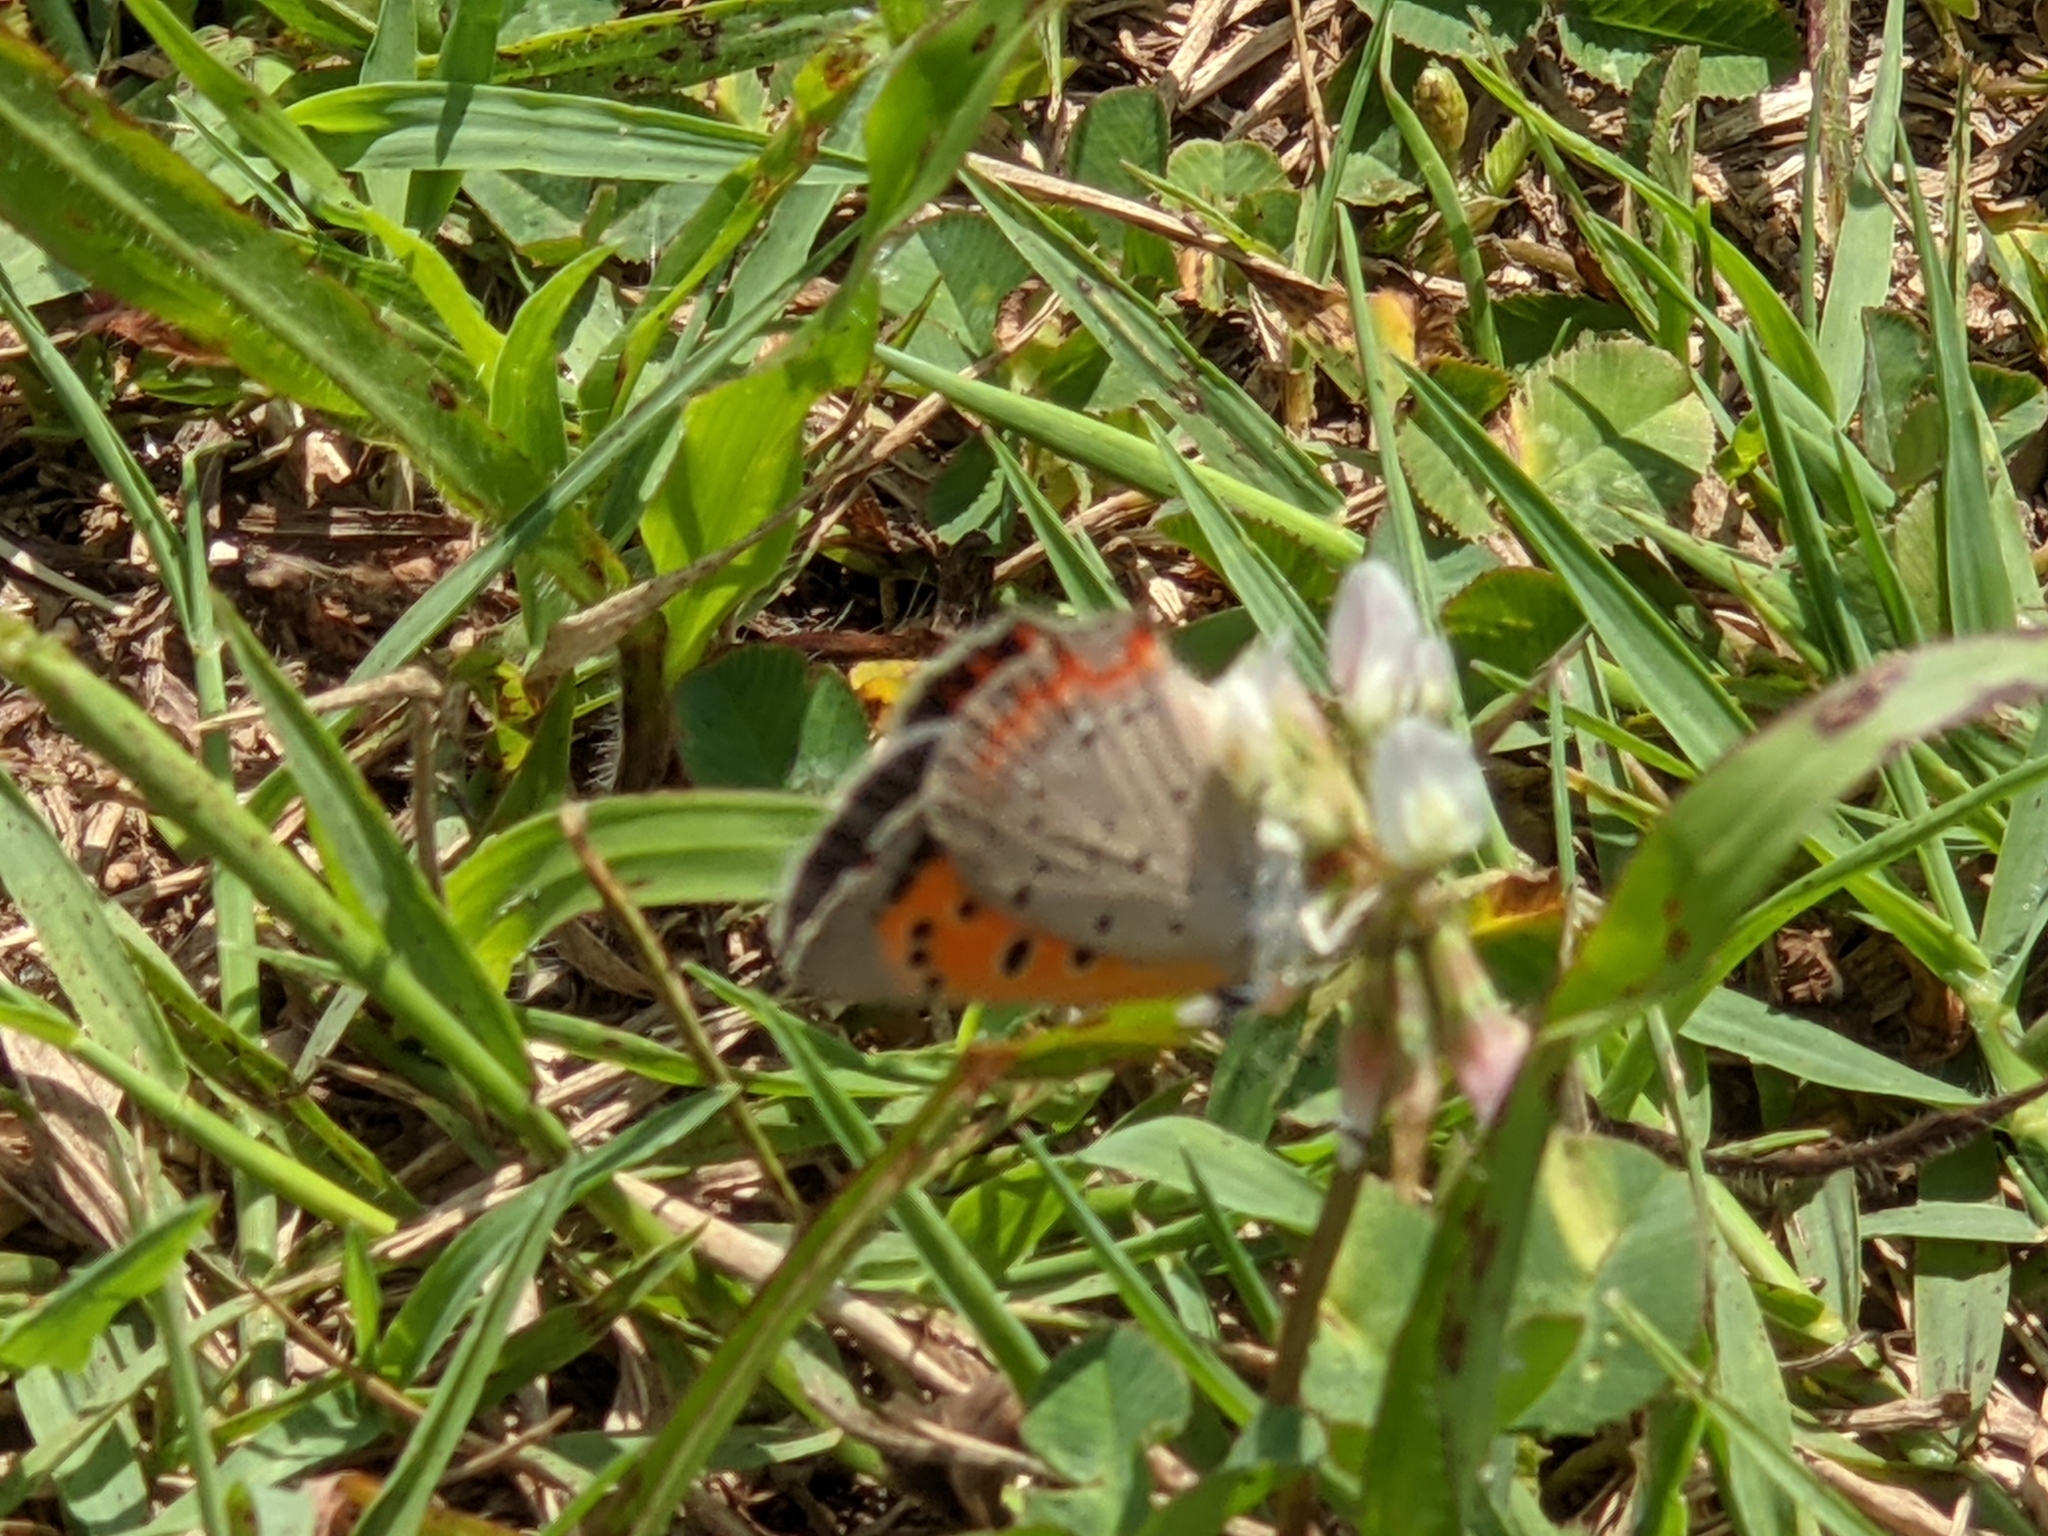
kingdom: Animalia
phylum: Arthropoda
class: Insecta
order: Lepidoptera
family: Lycaenidae
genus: Lycaena
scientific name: Lycaena hypophlaeas
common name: American copper
